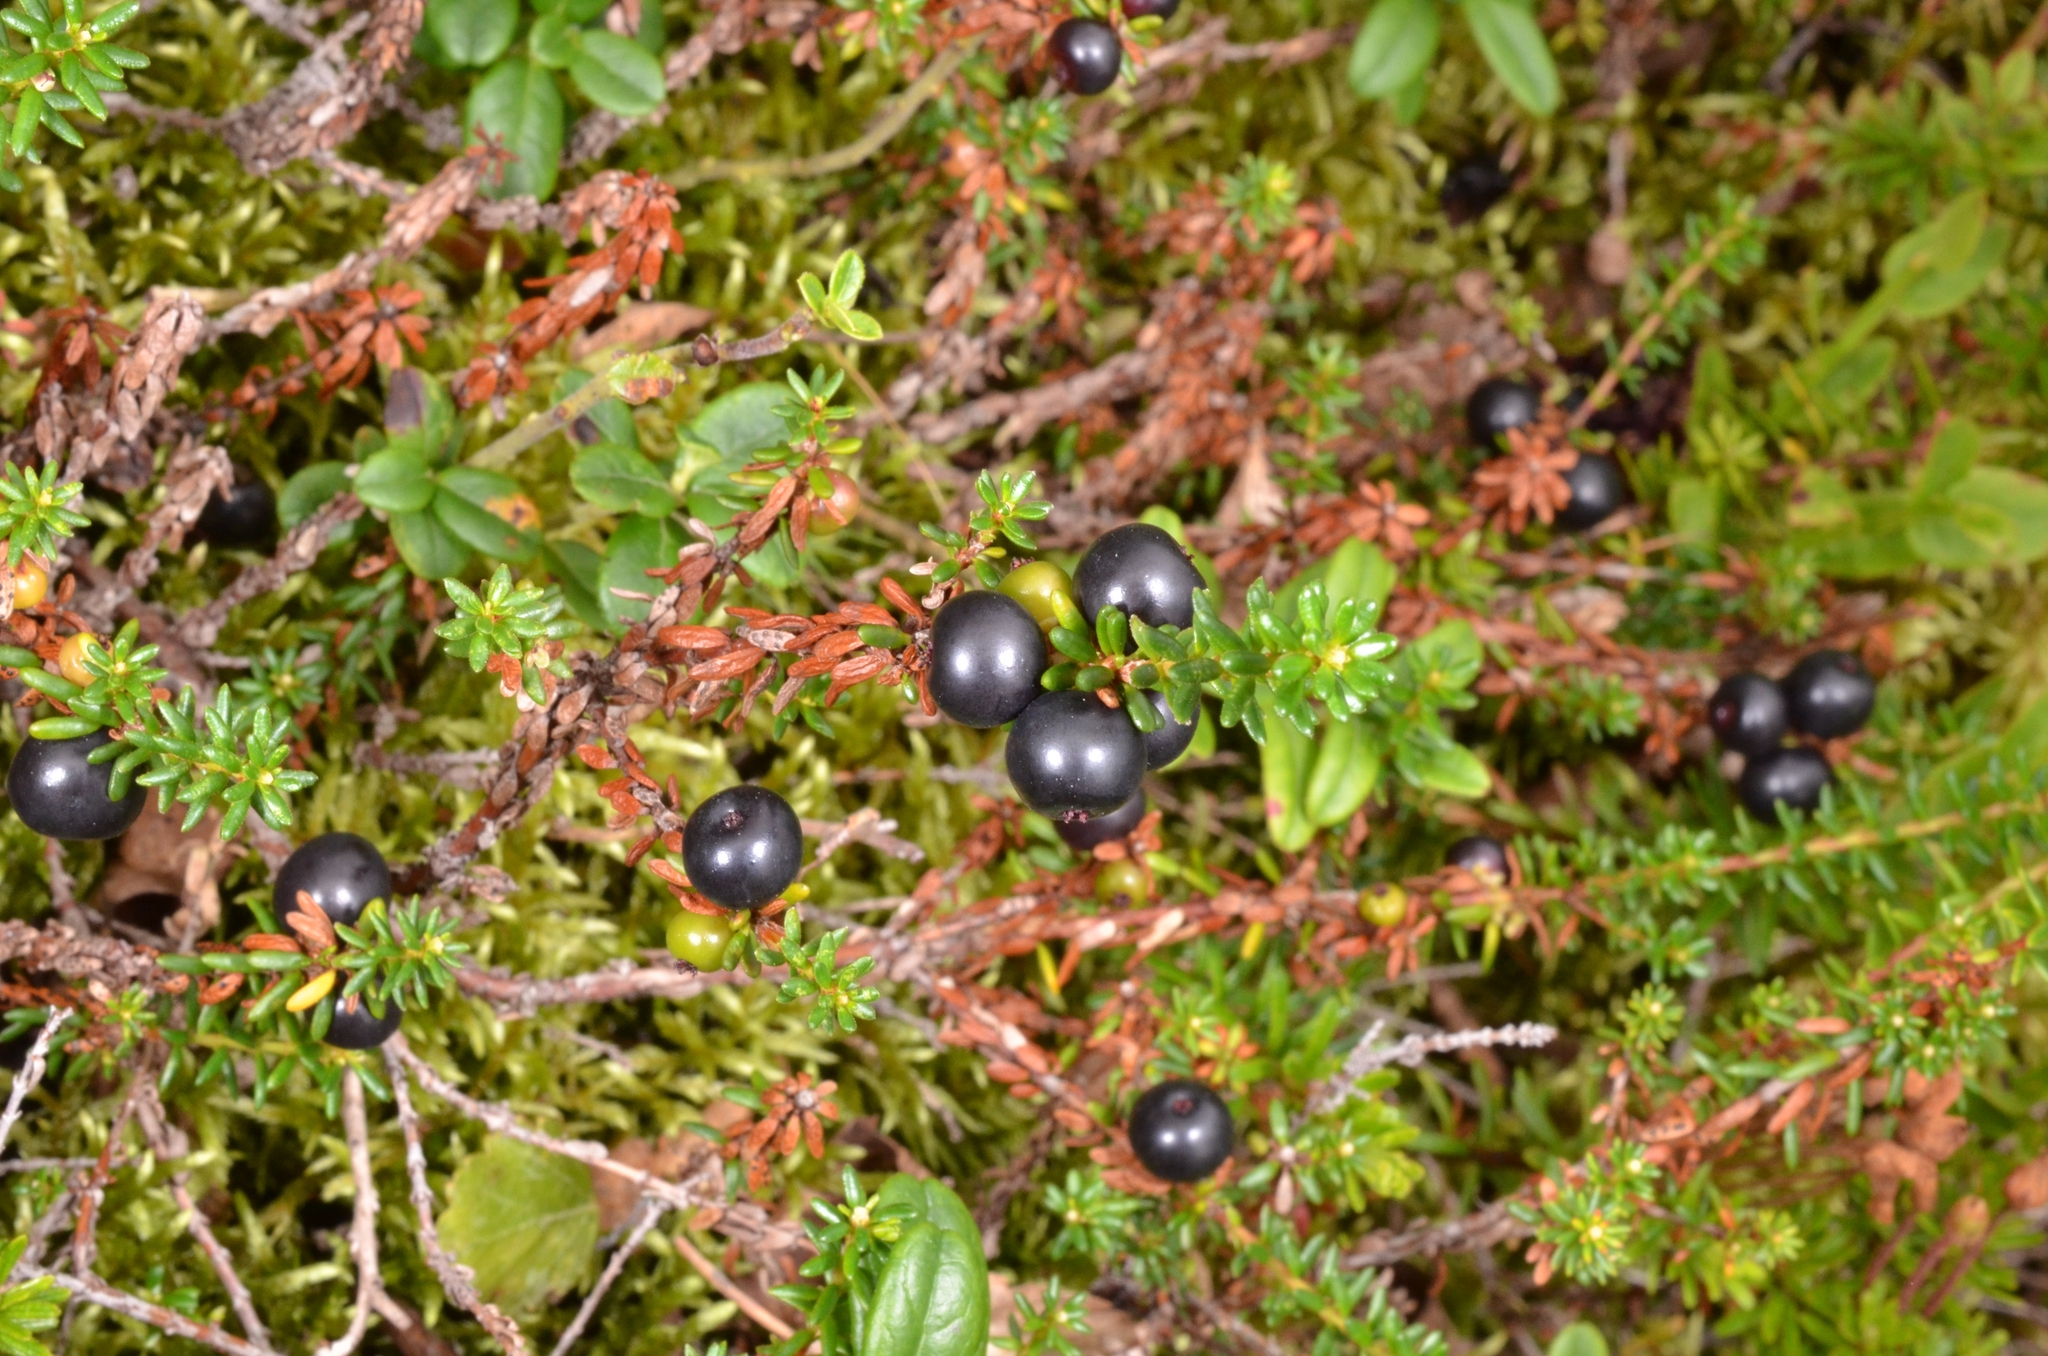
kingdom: Plantae
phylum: Tracheophyta
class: Magnoliopsida
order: Ericales
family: Ericaceae
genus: Empetrum
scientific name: Empetrum nigrum
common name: Black crowberry
